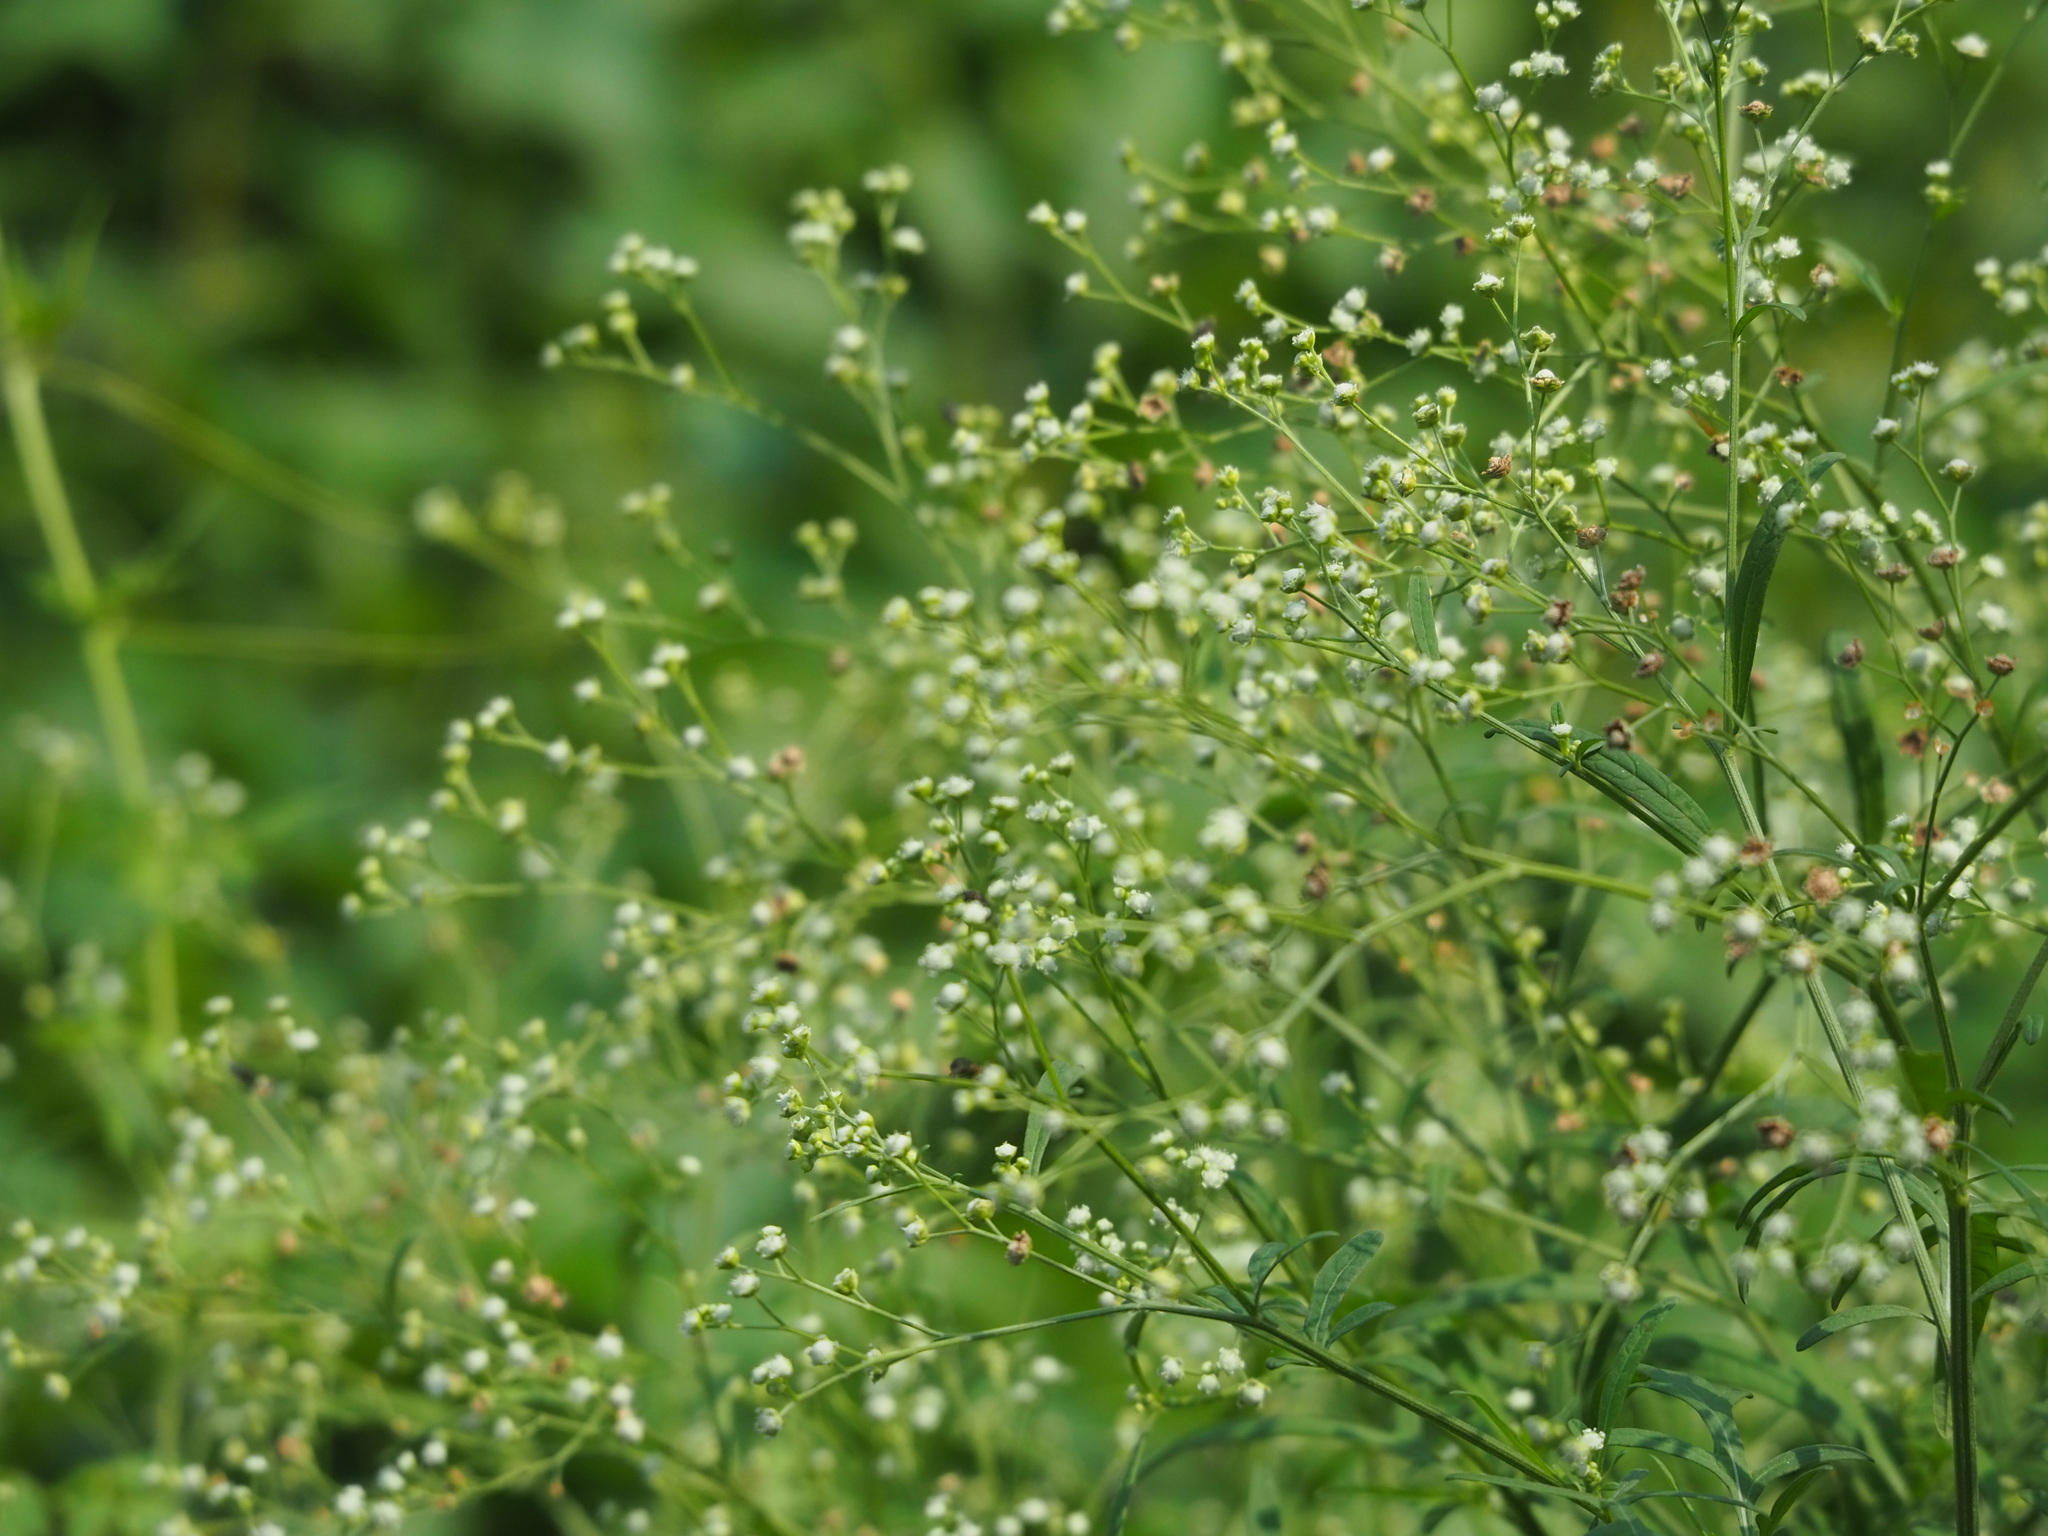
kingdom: Plantae
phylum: Tracheophyta
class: Magnoliopsida
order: Asterales
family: Asteraceae
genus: Parthenium
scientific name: Parthenium hysterophorus
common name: Santa maria feverfew
